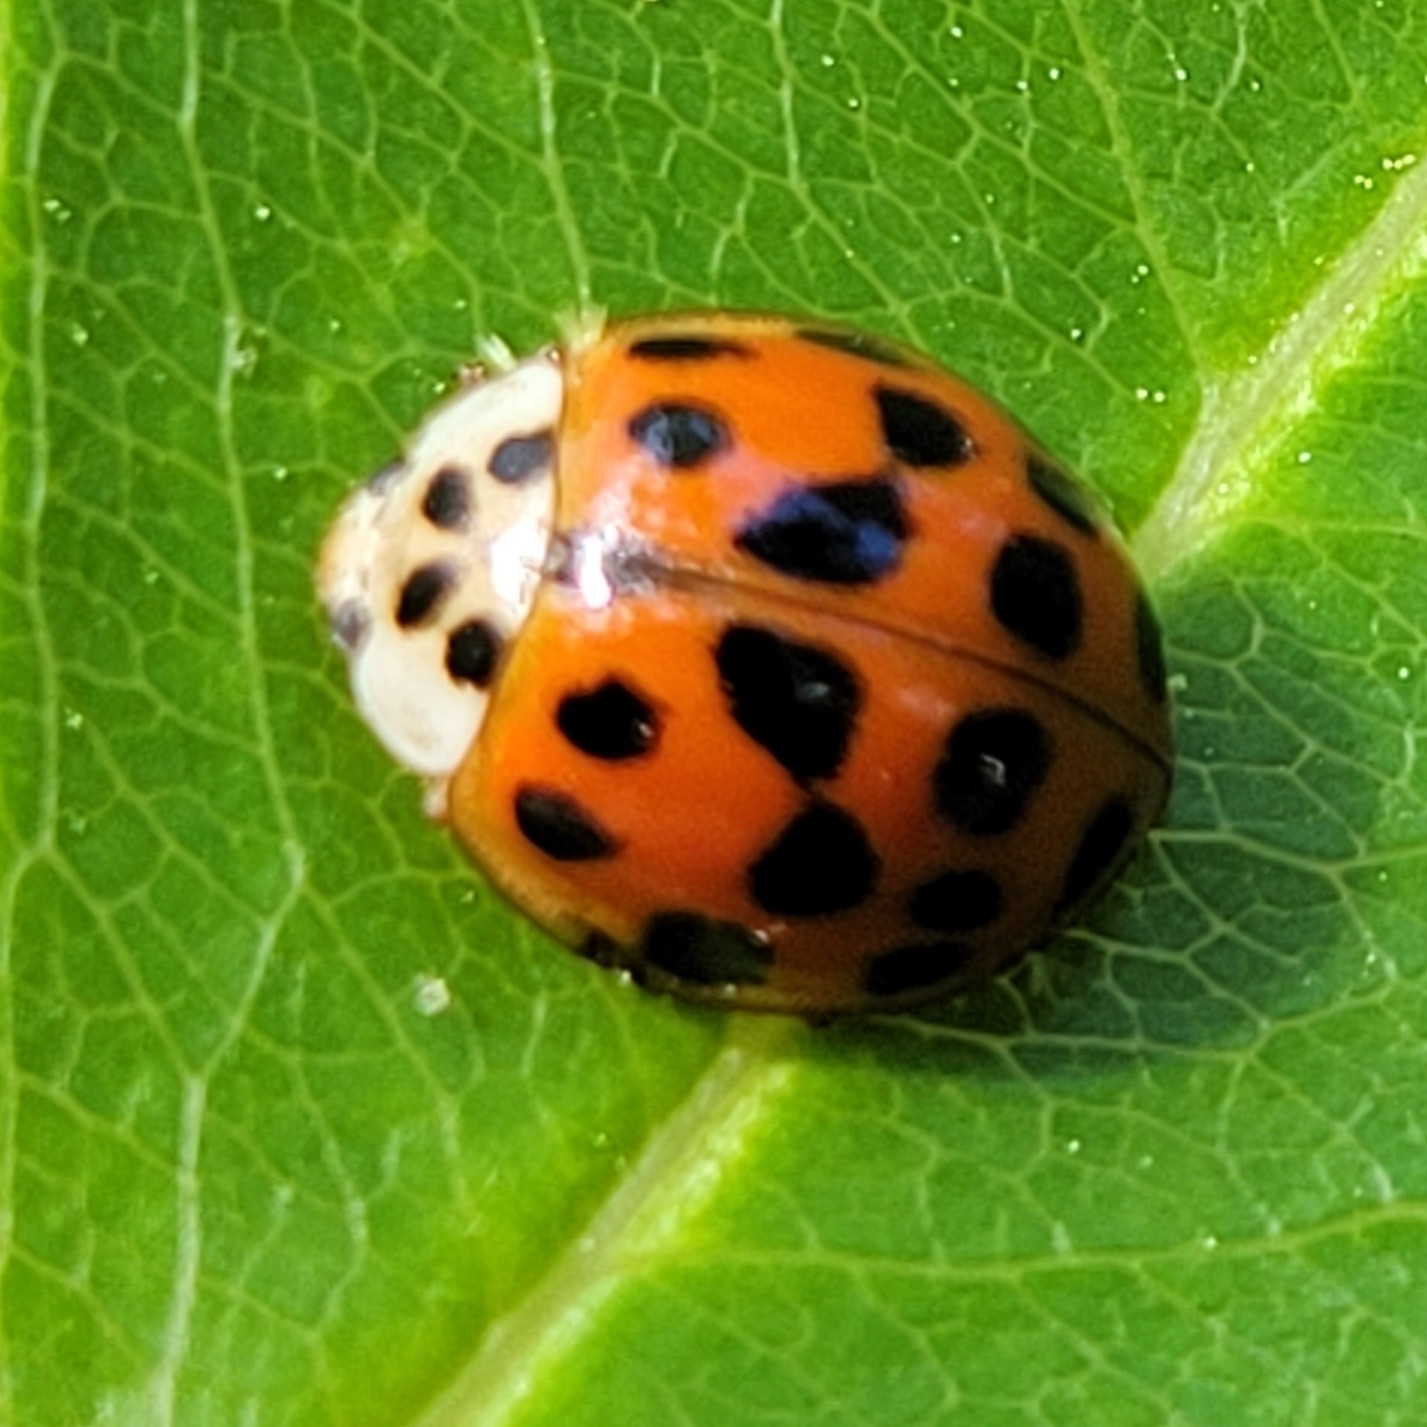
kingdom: Animalia
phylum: Arthropoda
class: Insecta
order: Coleoptera
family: Coccinellidae
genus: Harmonia
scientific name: Harmonia axyridis
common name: Harlequin ladybird
